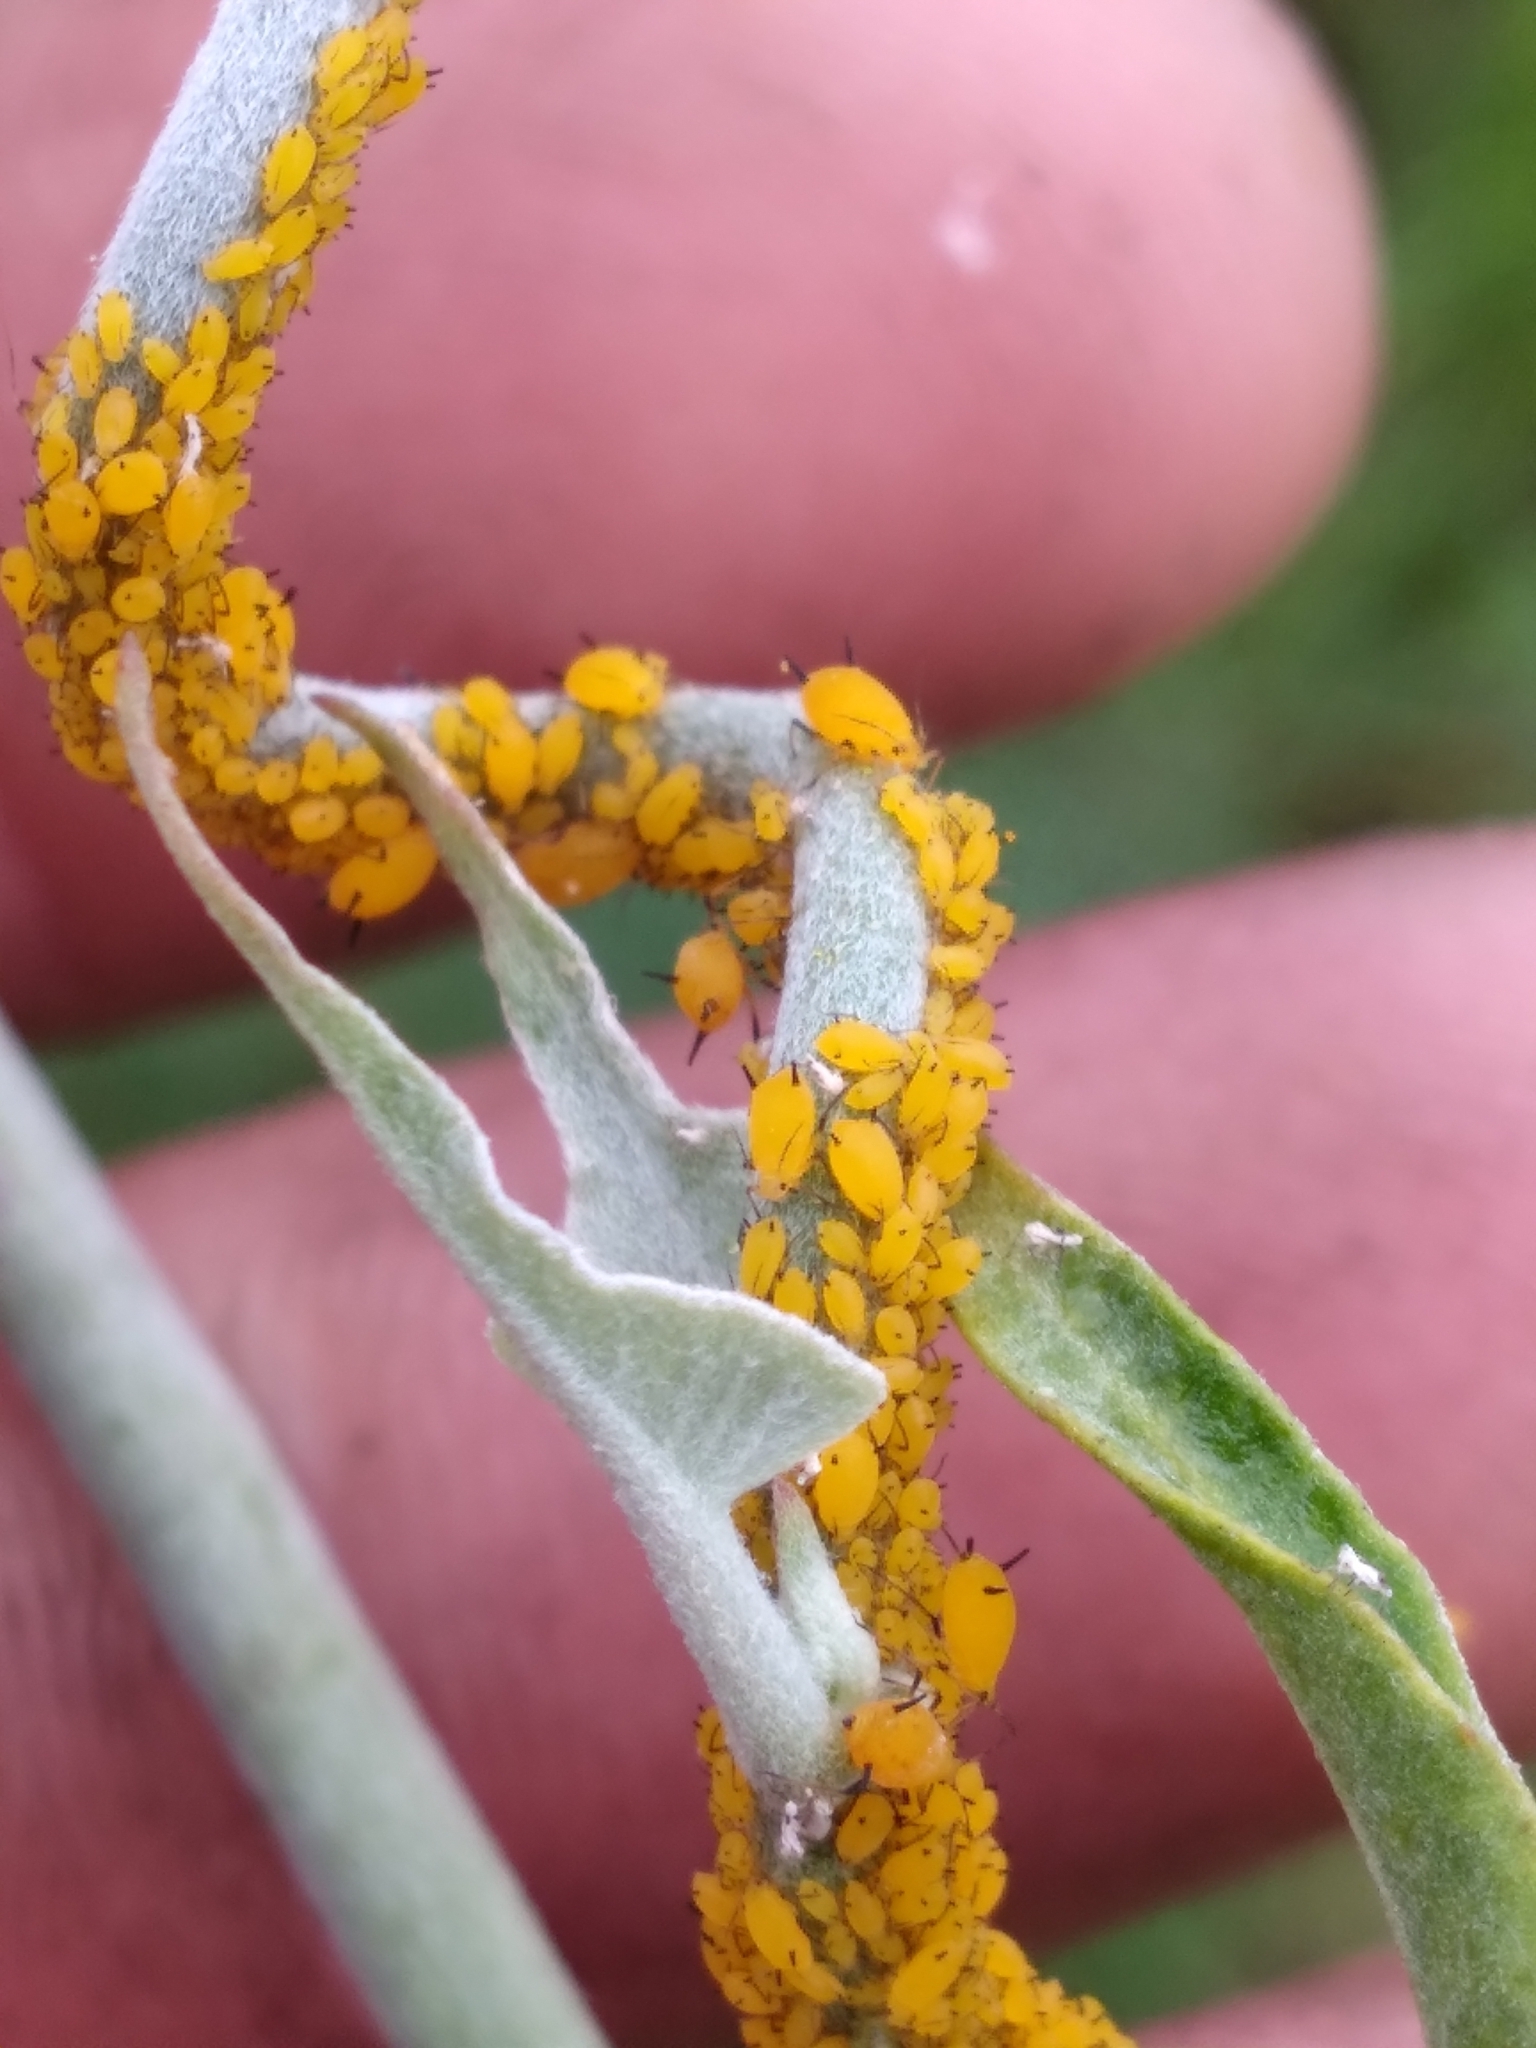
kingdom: Animalia
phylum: Arthropoda
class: Insecta
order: Hemiptera
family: Aphididae
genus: Aphis
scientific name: Aphis nerii
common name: Oleander aphid
